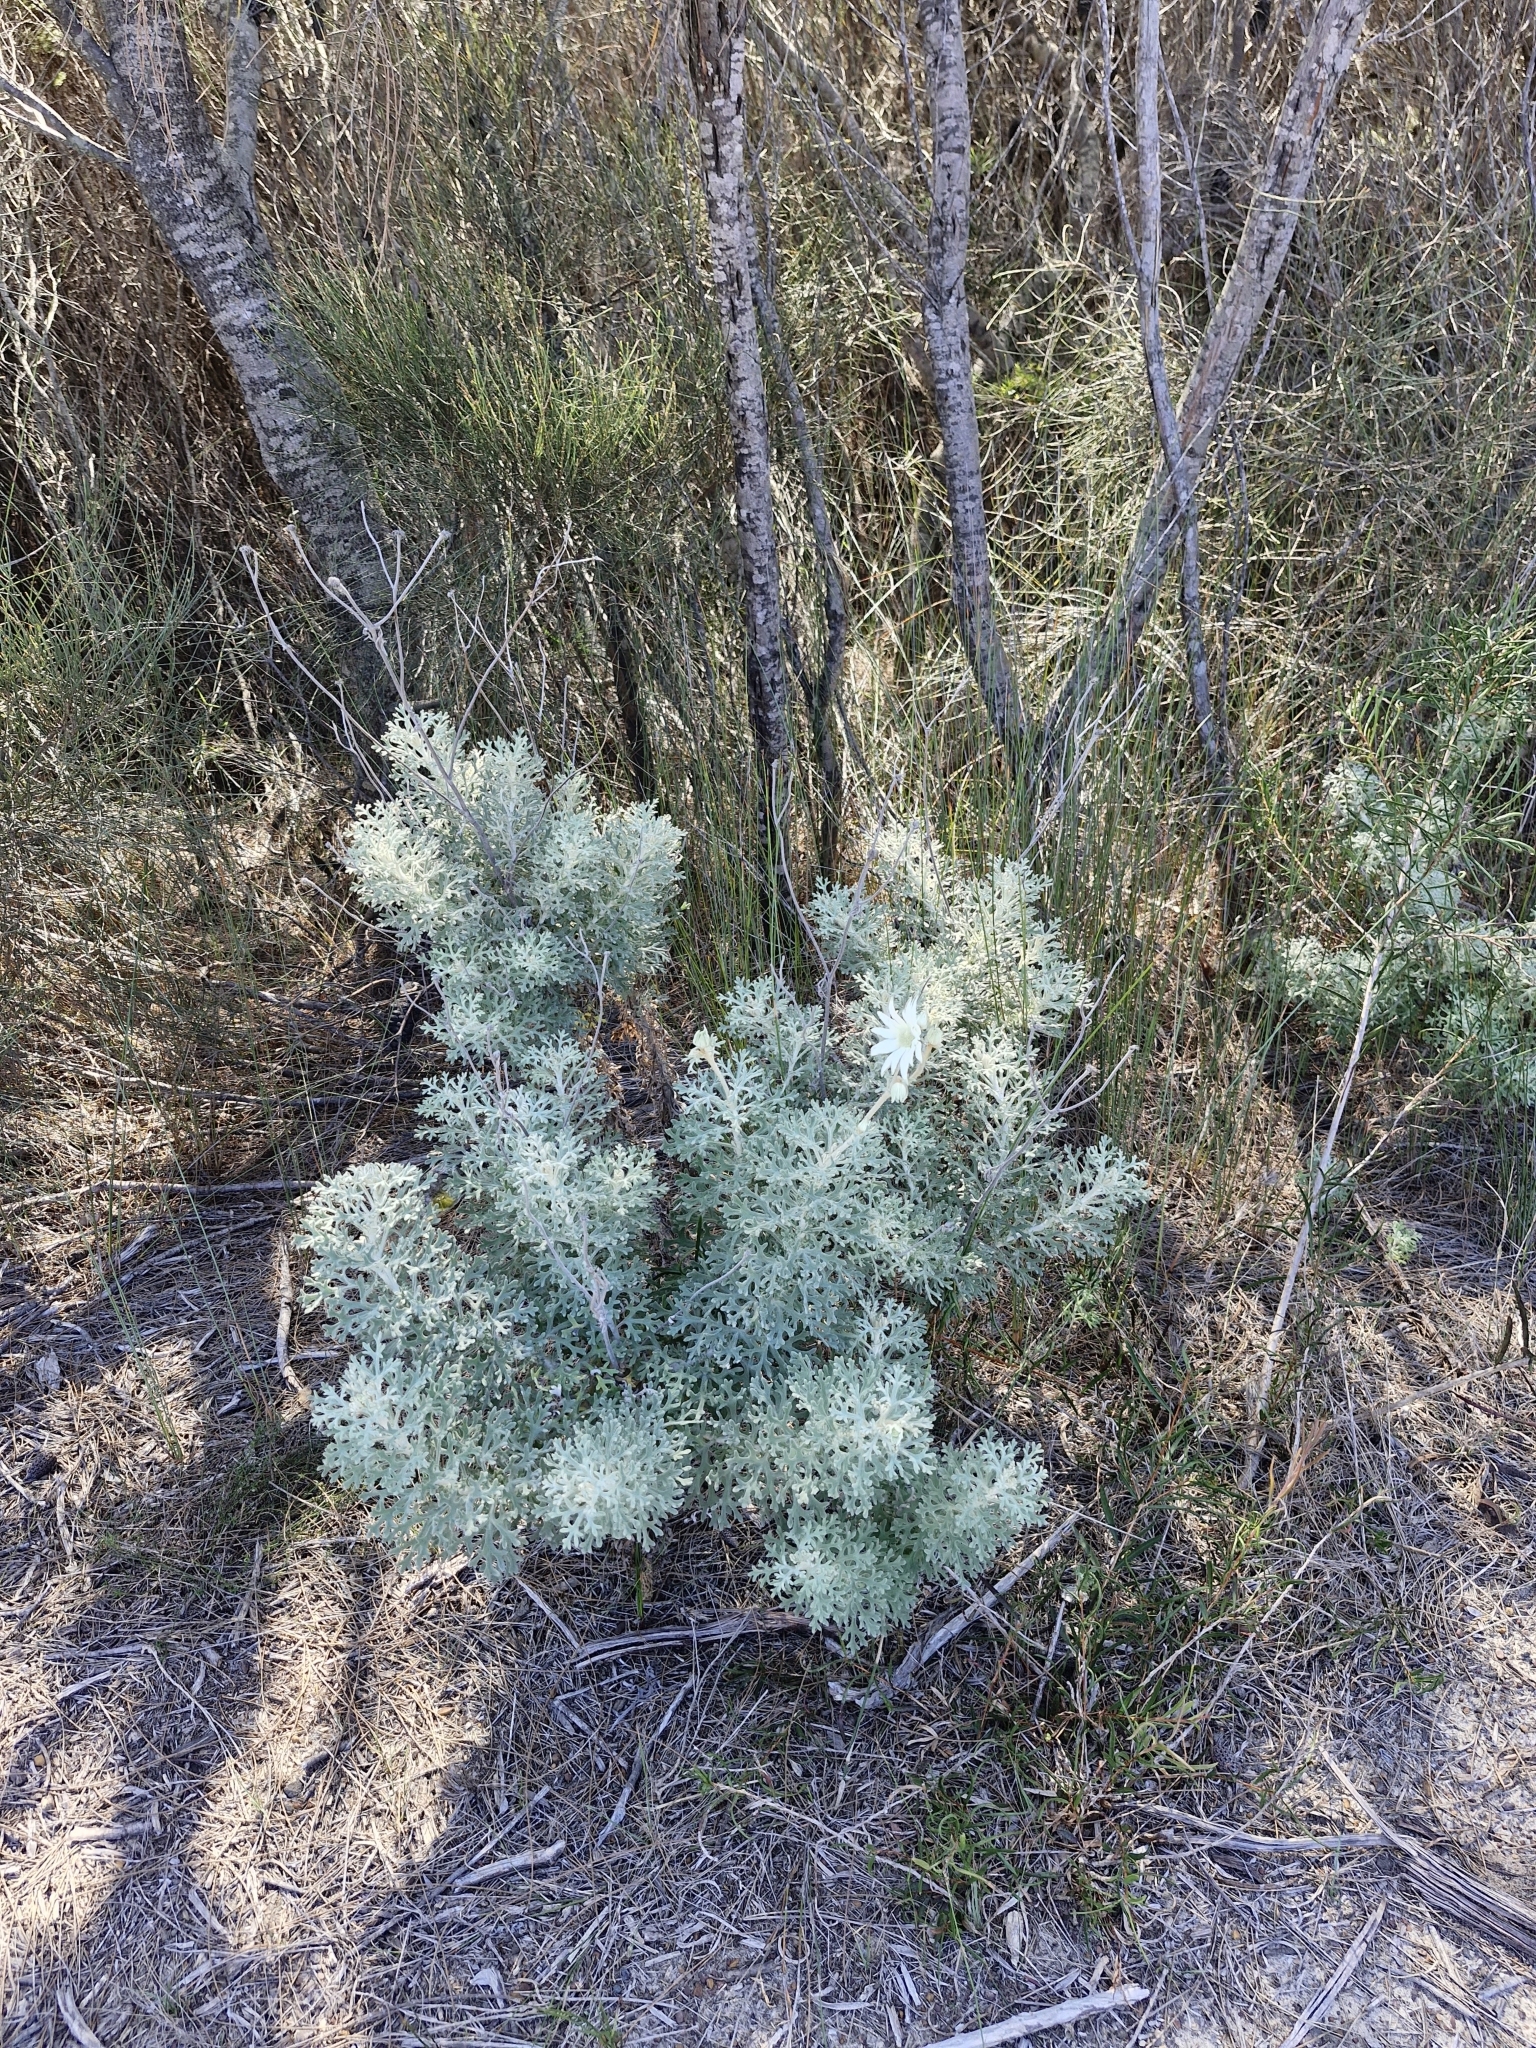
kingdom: Plantae
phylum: Tracheophyta
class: Magnoliopsida
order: Apiales
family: Apiaceae
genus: Actinotus
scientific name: Actinotus helianthi
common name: Flannel-flower
